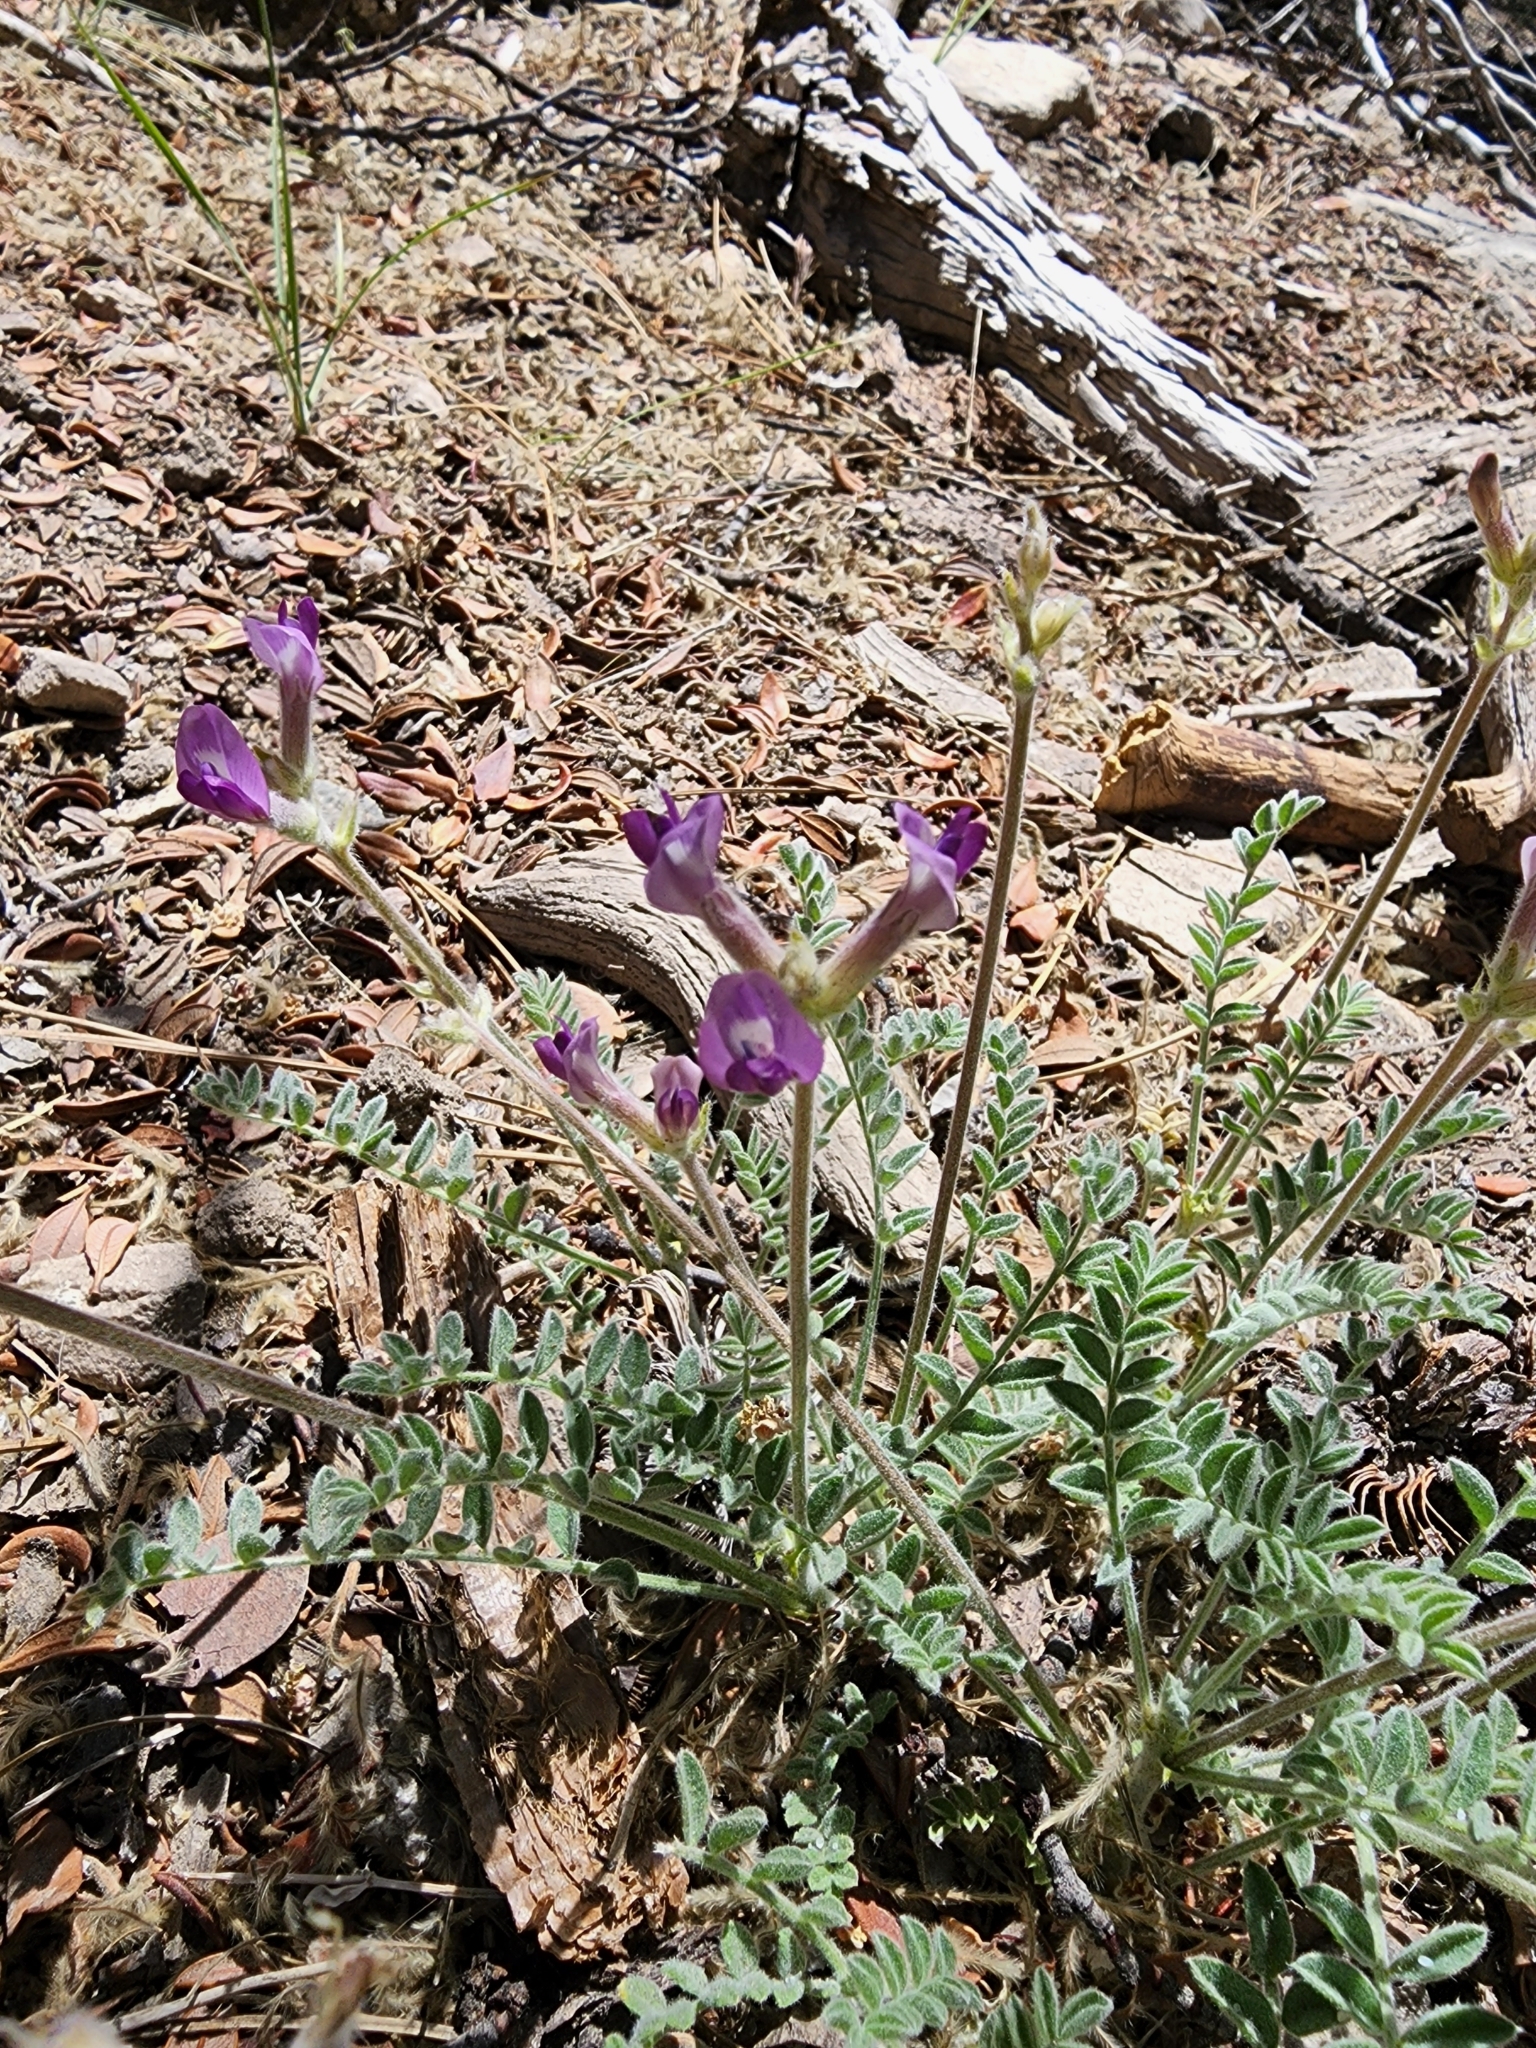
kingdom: Plantae
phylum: Tracheophyta
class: Magnoliopsida
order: Fabales
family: Fabaceae
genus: Astragalus
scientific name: Astragalus leucolobus
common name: Big bear valley woollypod
